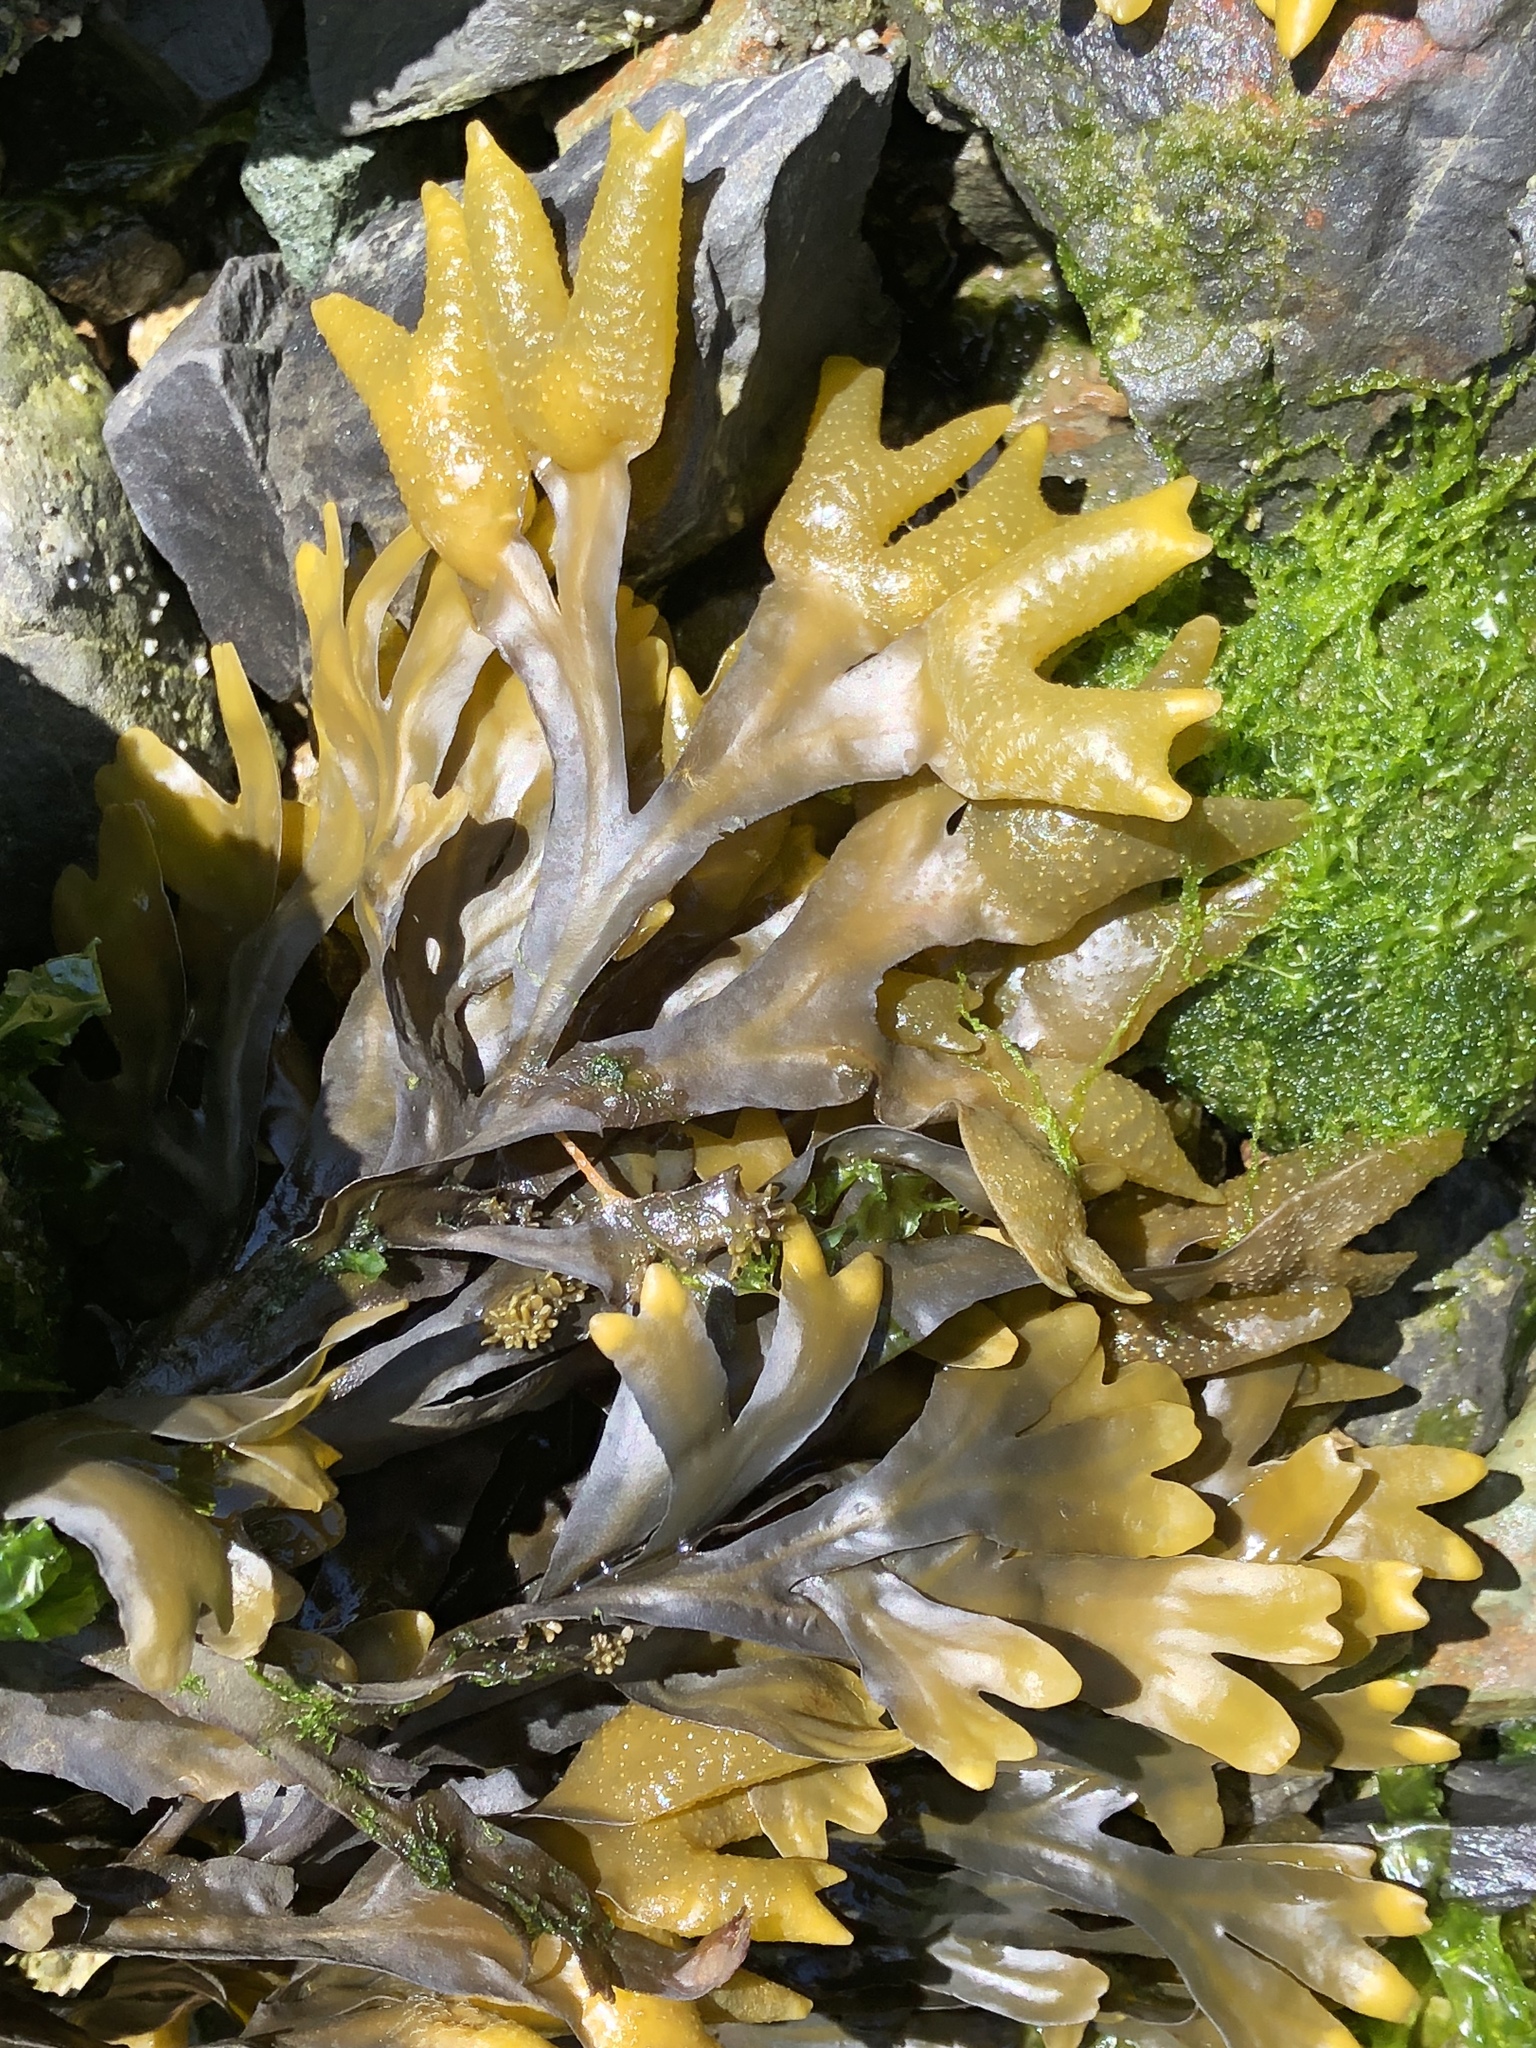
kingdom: Chromista
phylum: Ochrophyta
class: Phaeophyceae
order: Fucales
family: Fucaceae
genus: Fucus
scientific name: Fucus distichus
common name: Rockweed
